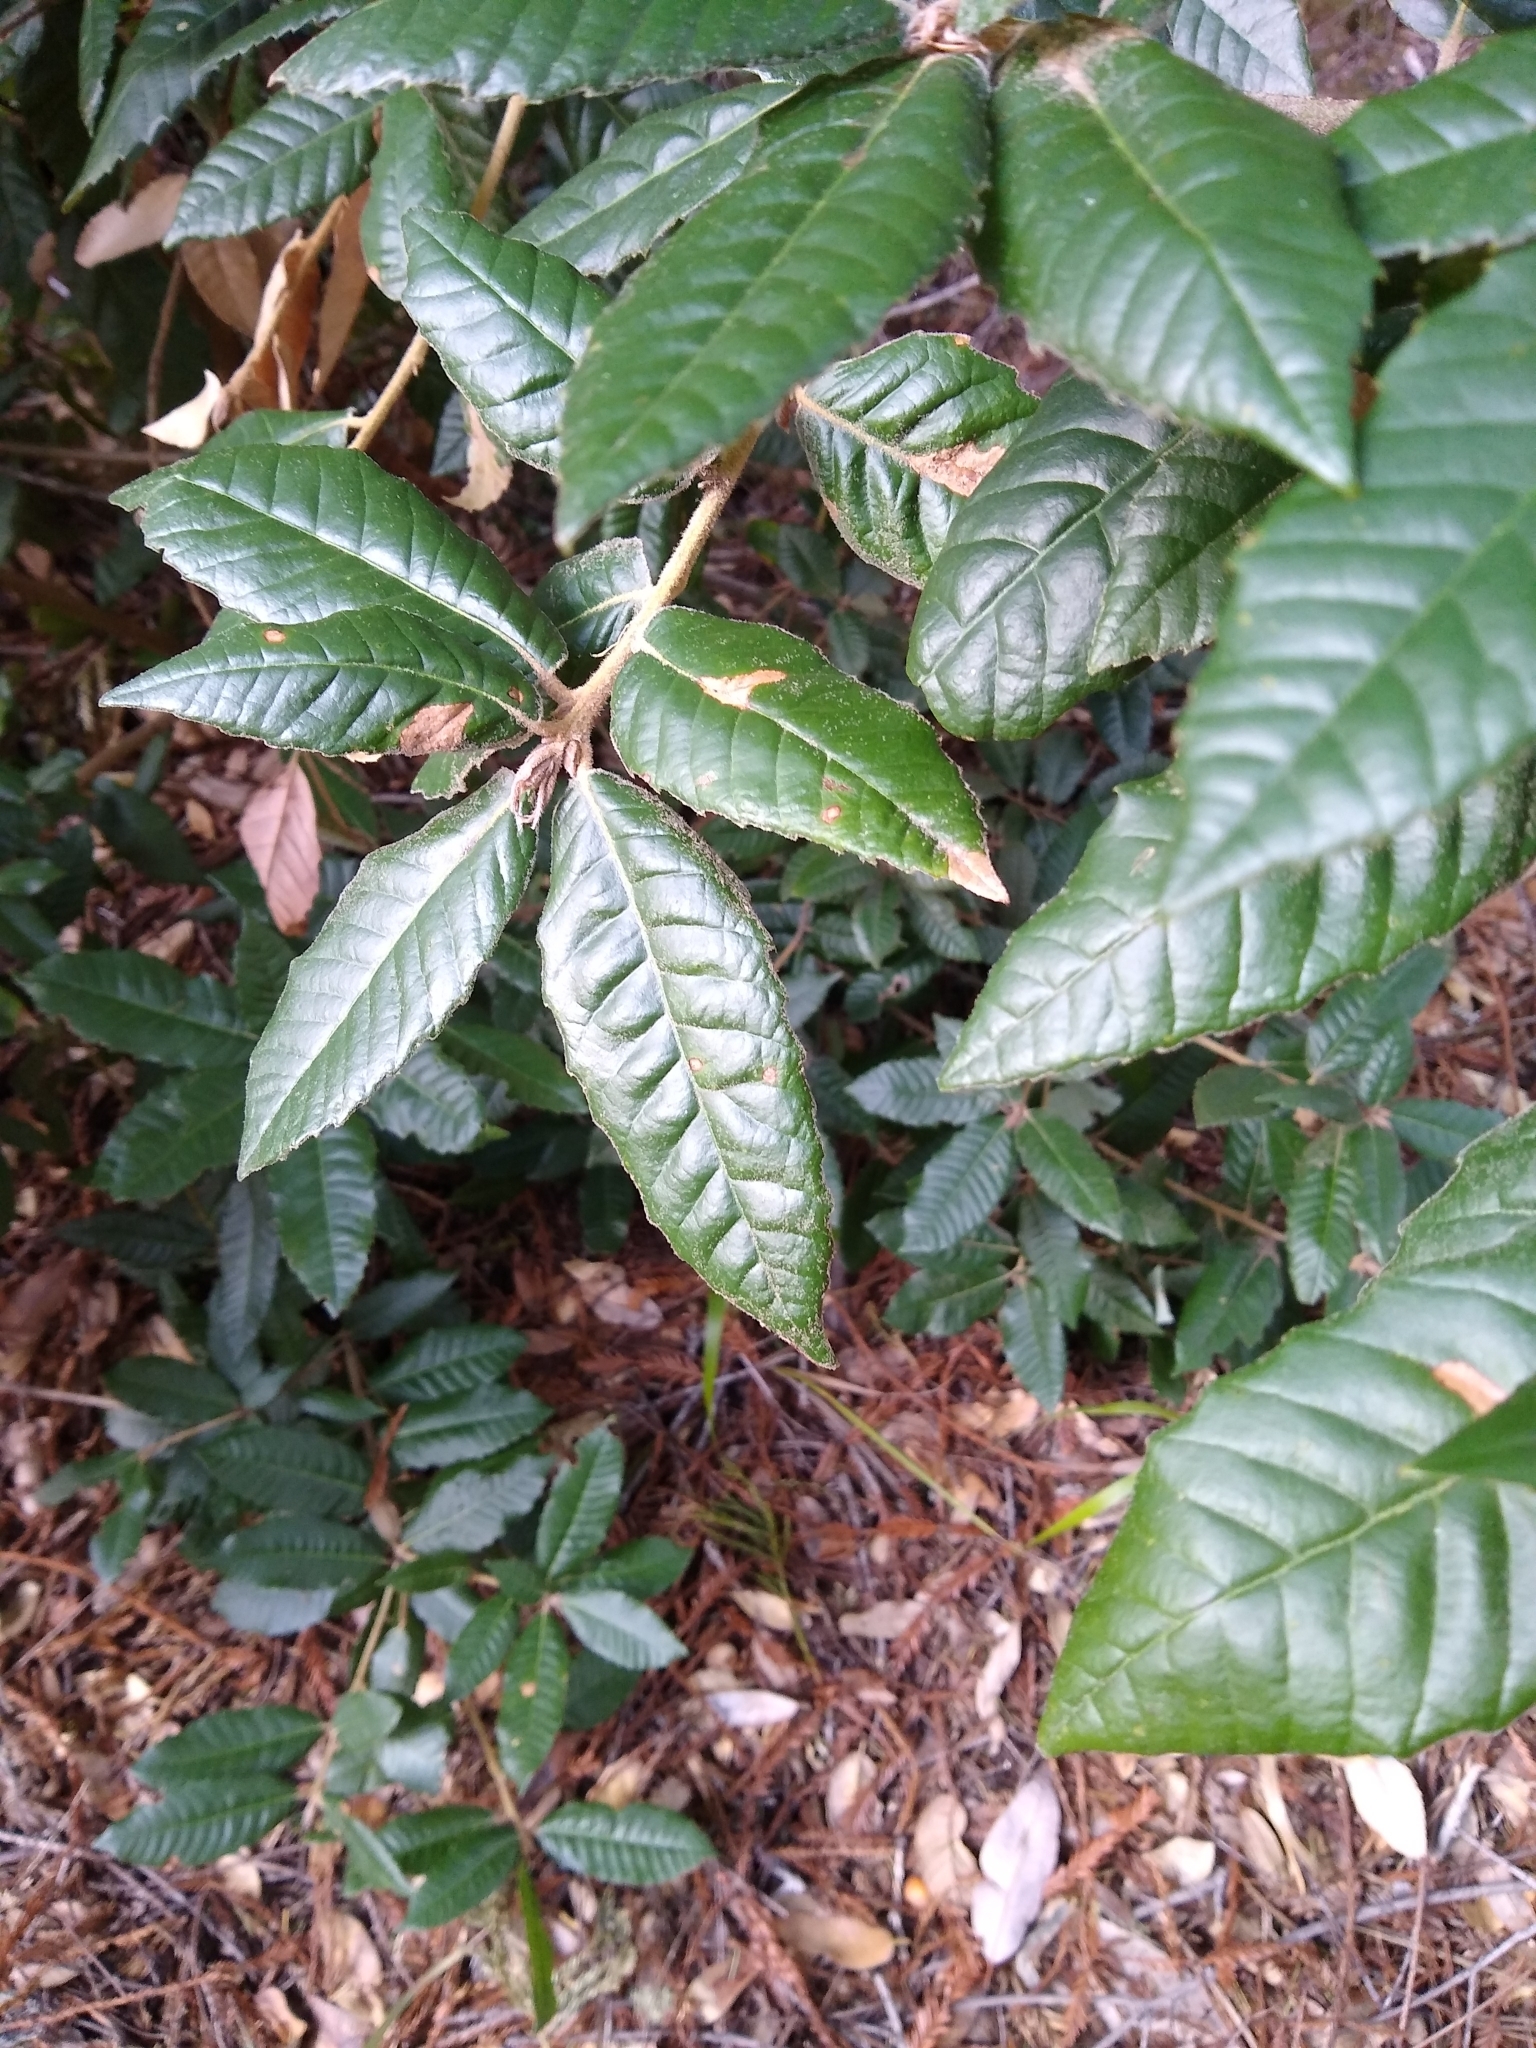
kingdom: Plantae
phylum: Tracheophyta
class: Magnoliopsida
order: Fagales
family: Fagaceae
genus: Notholithocarpus
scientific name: Notholithocarpus densiflorus
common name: Tan bark oak
